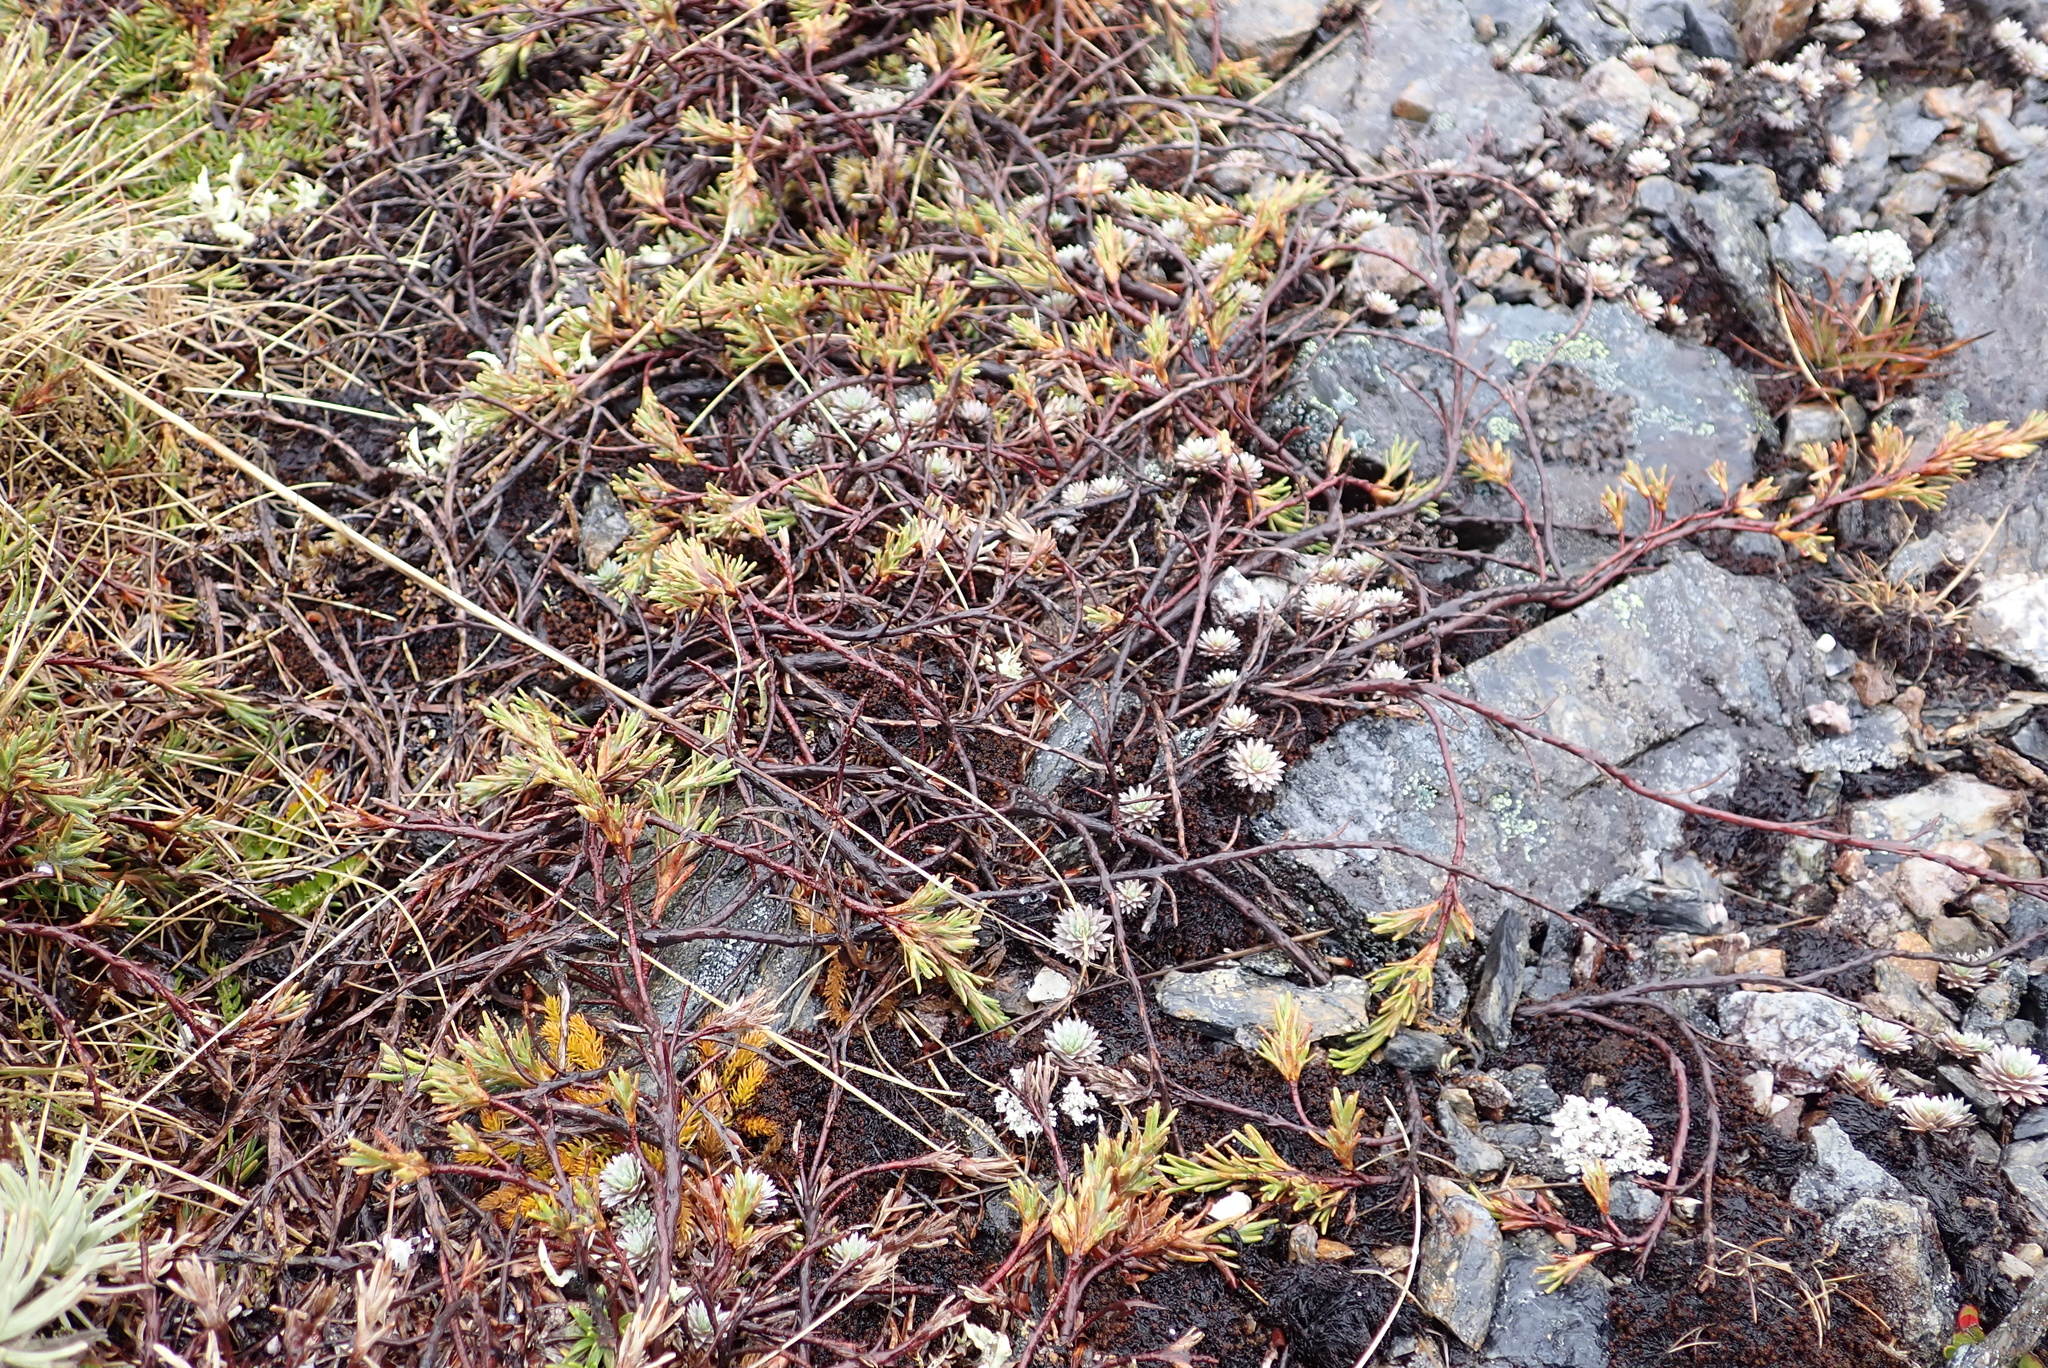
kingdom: Plantae
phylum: Tracheophyta
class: Magnoliopsida
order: Ericales
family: Ericaceae
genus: Dracophyllum
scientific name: Dracophyllum pronum
